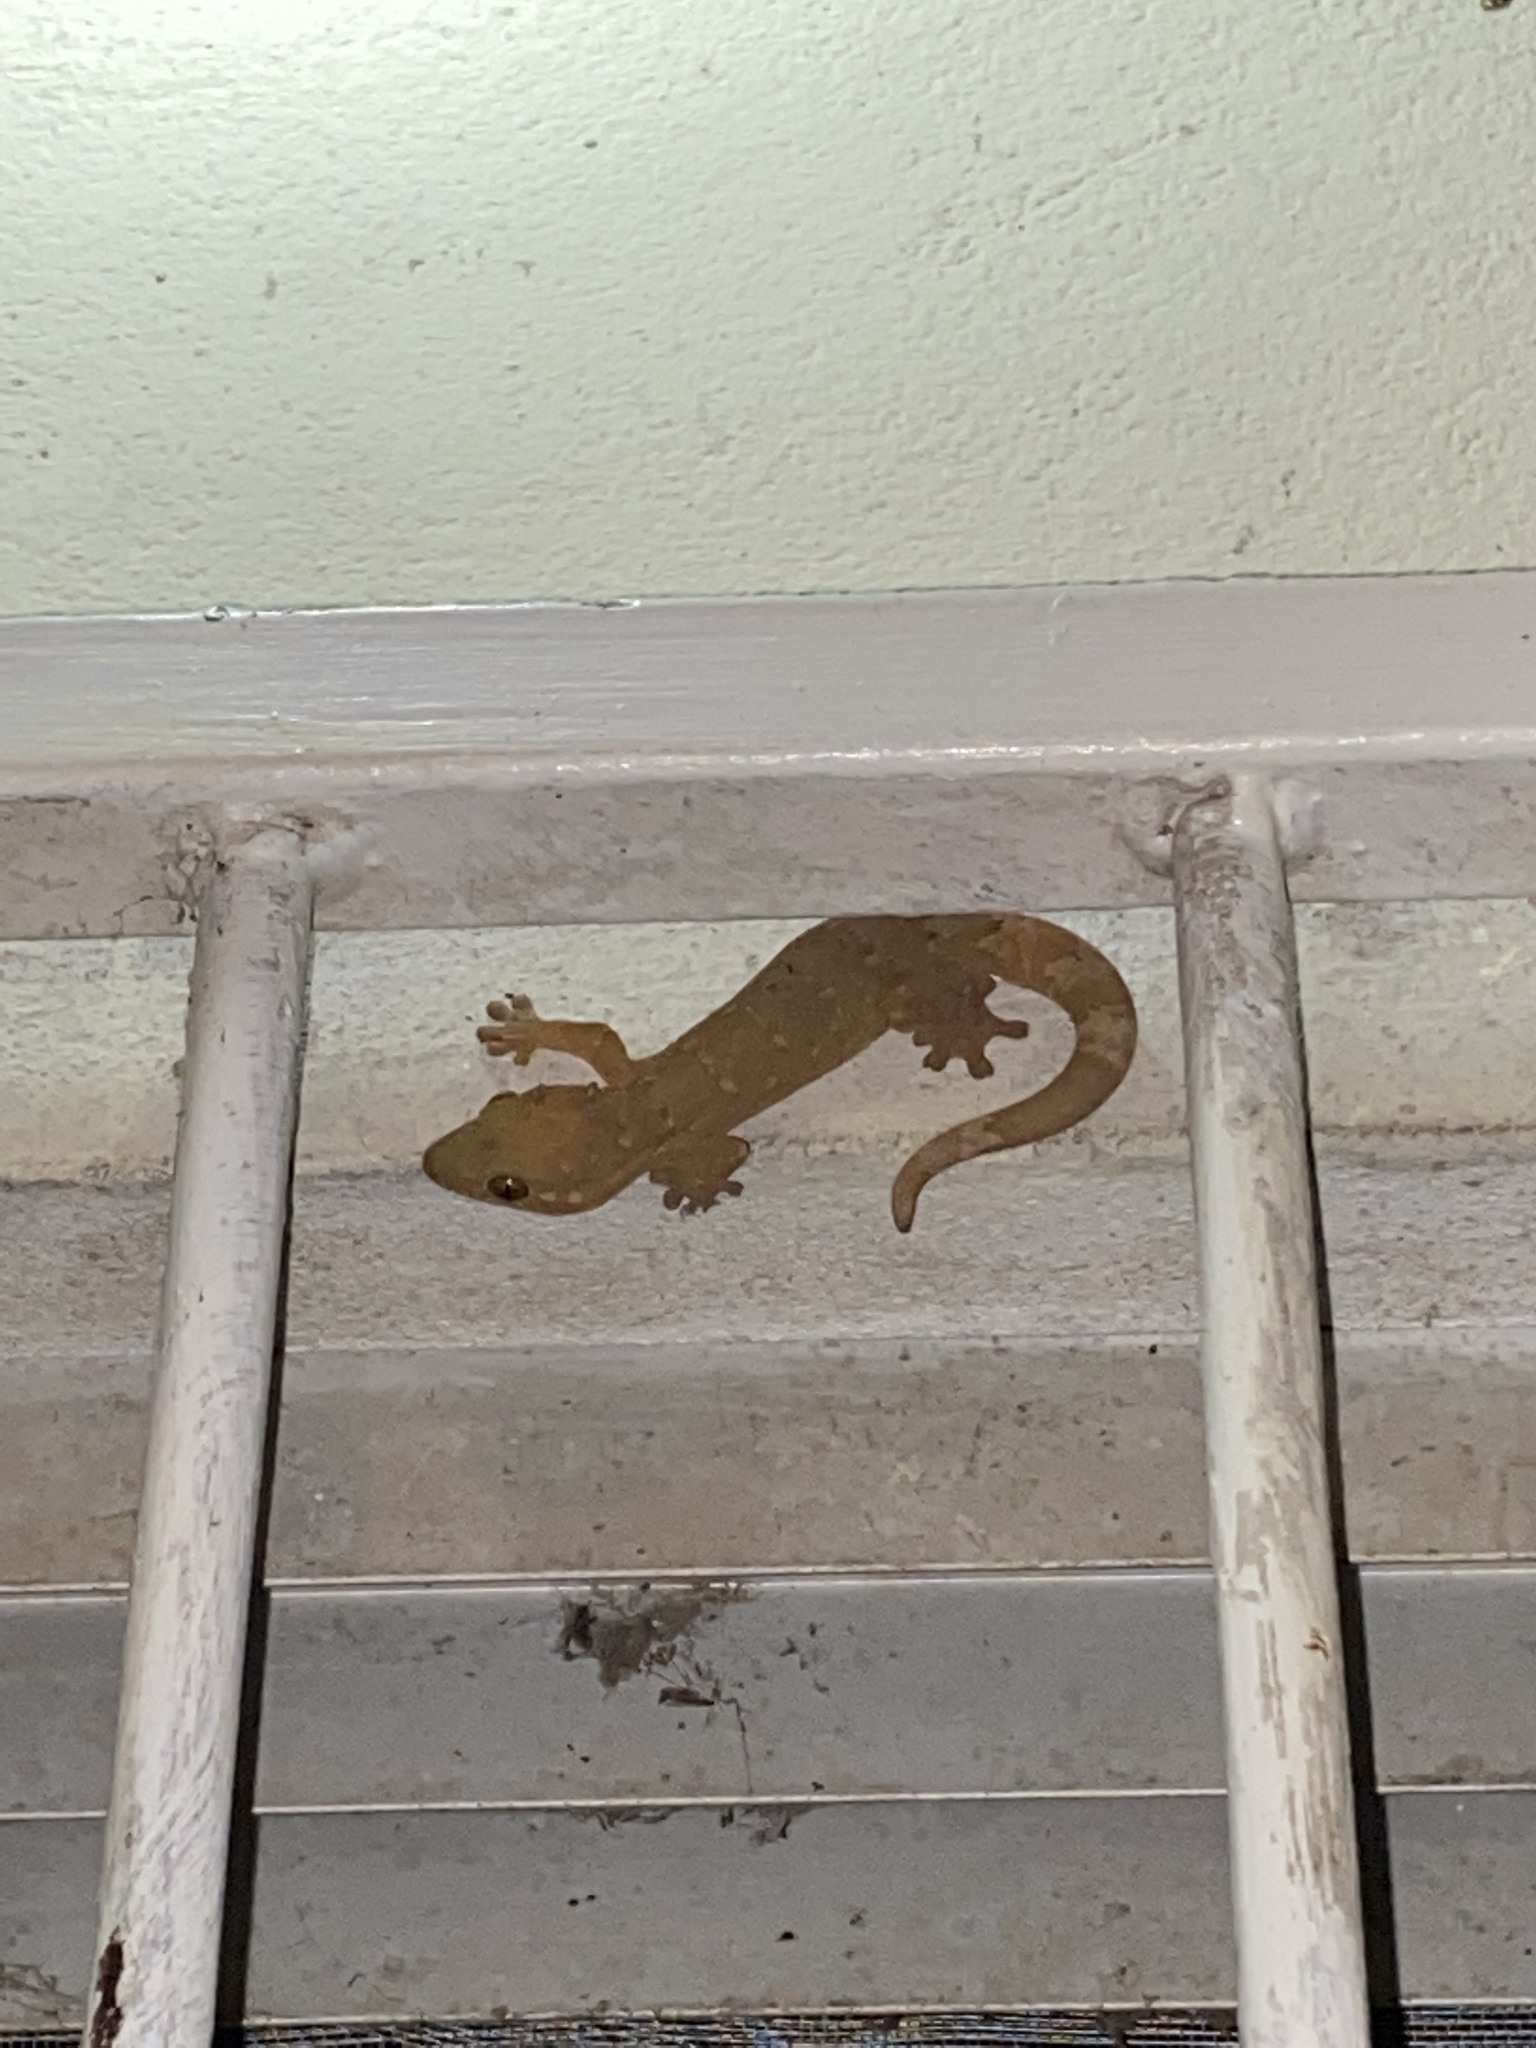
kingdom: Animalia
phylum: Chordata
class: Squamata
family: Phyllodactylidae
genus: Thecadactylus
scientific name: Thecadactylus rapicauda
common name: Turnip-tailed gecko
